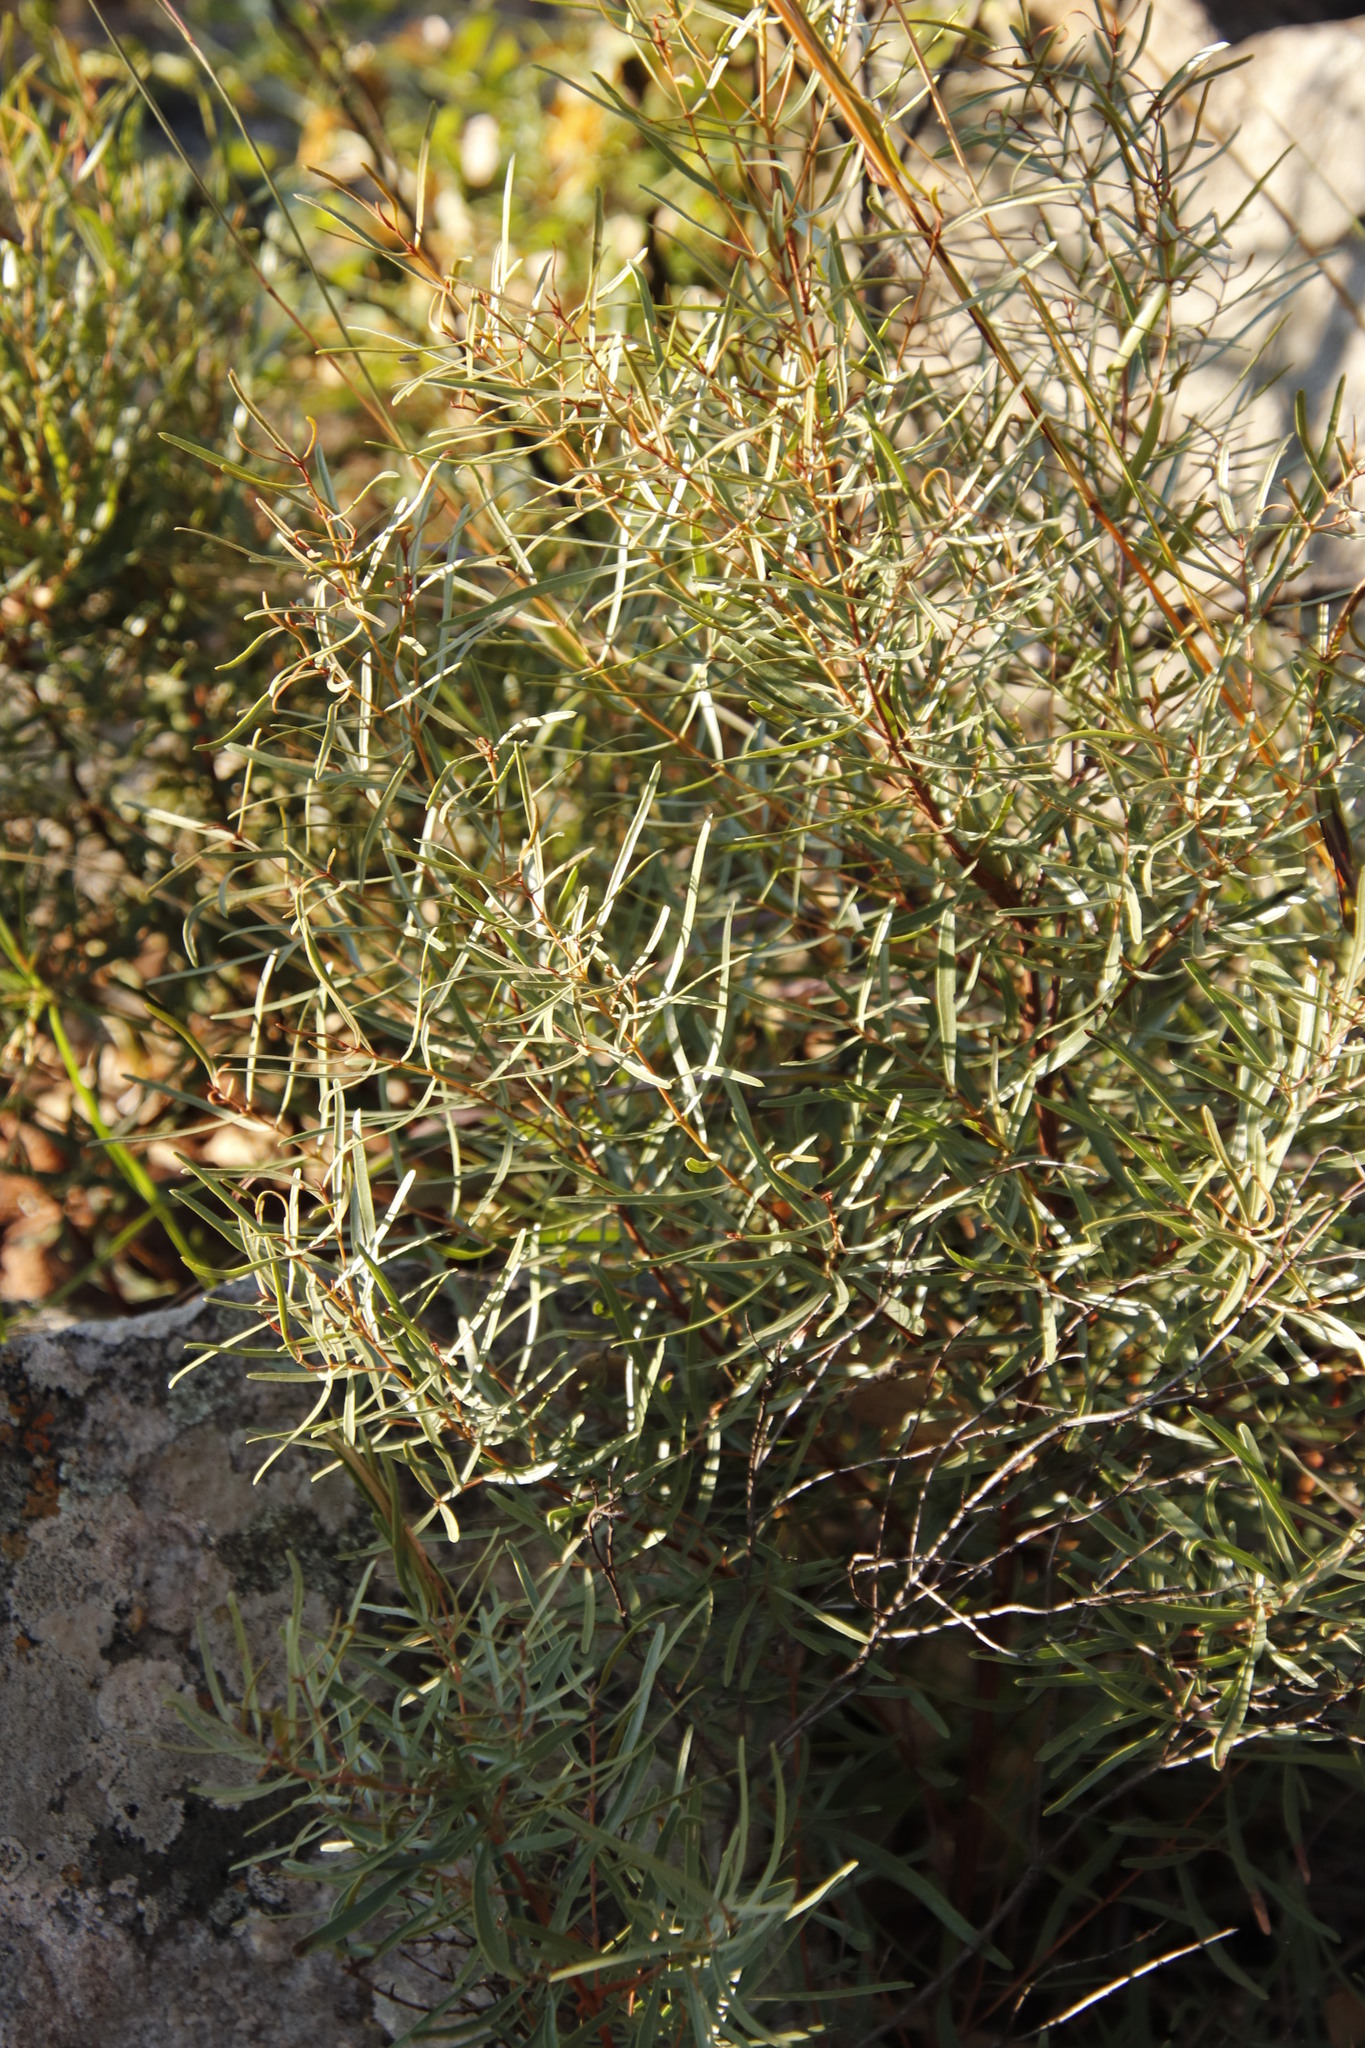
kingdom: Plantae
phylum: Tracheophyta
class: Magnoliopsida
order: Ericales
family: Ebenaceae
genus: Euclea
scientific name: Euclea linearis
